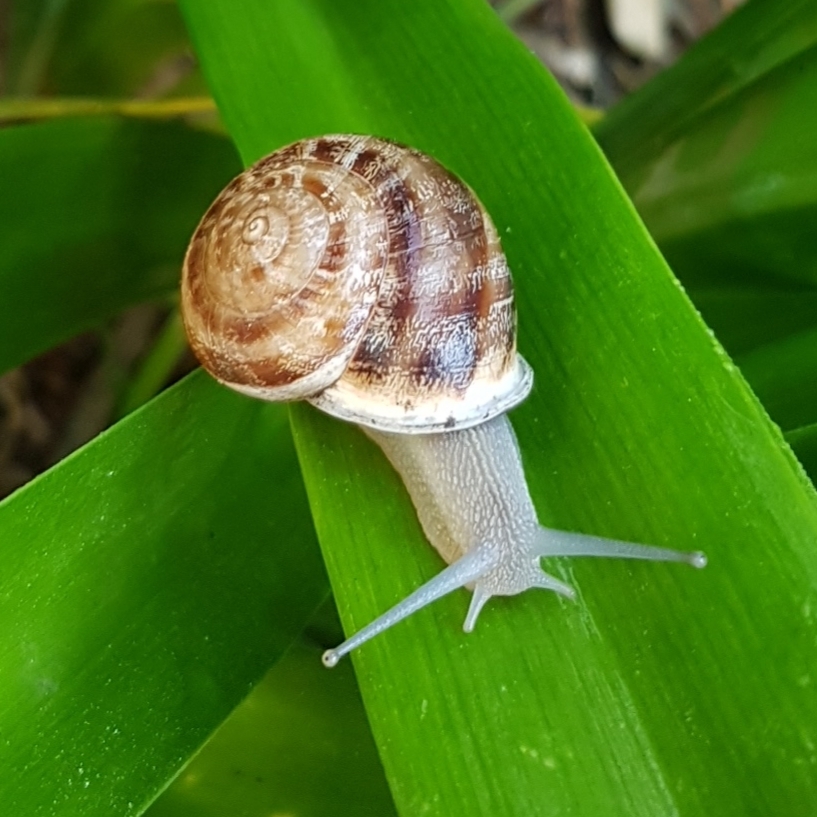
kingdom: Animalia
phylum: Mollusca
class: Gastropoda
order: Stylommatophora
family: Helicidae
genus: Eobania
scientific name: Eobania vermiculata
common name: Chocolateband snail
